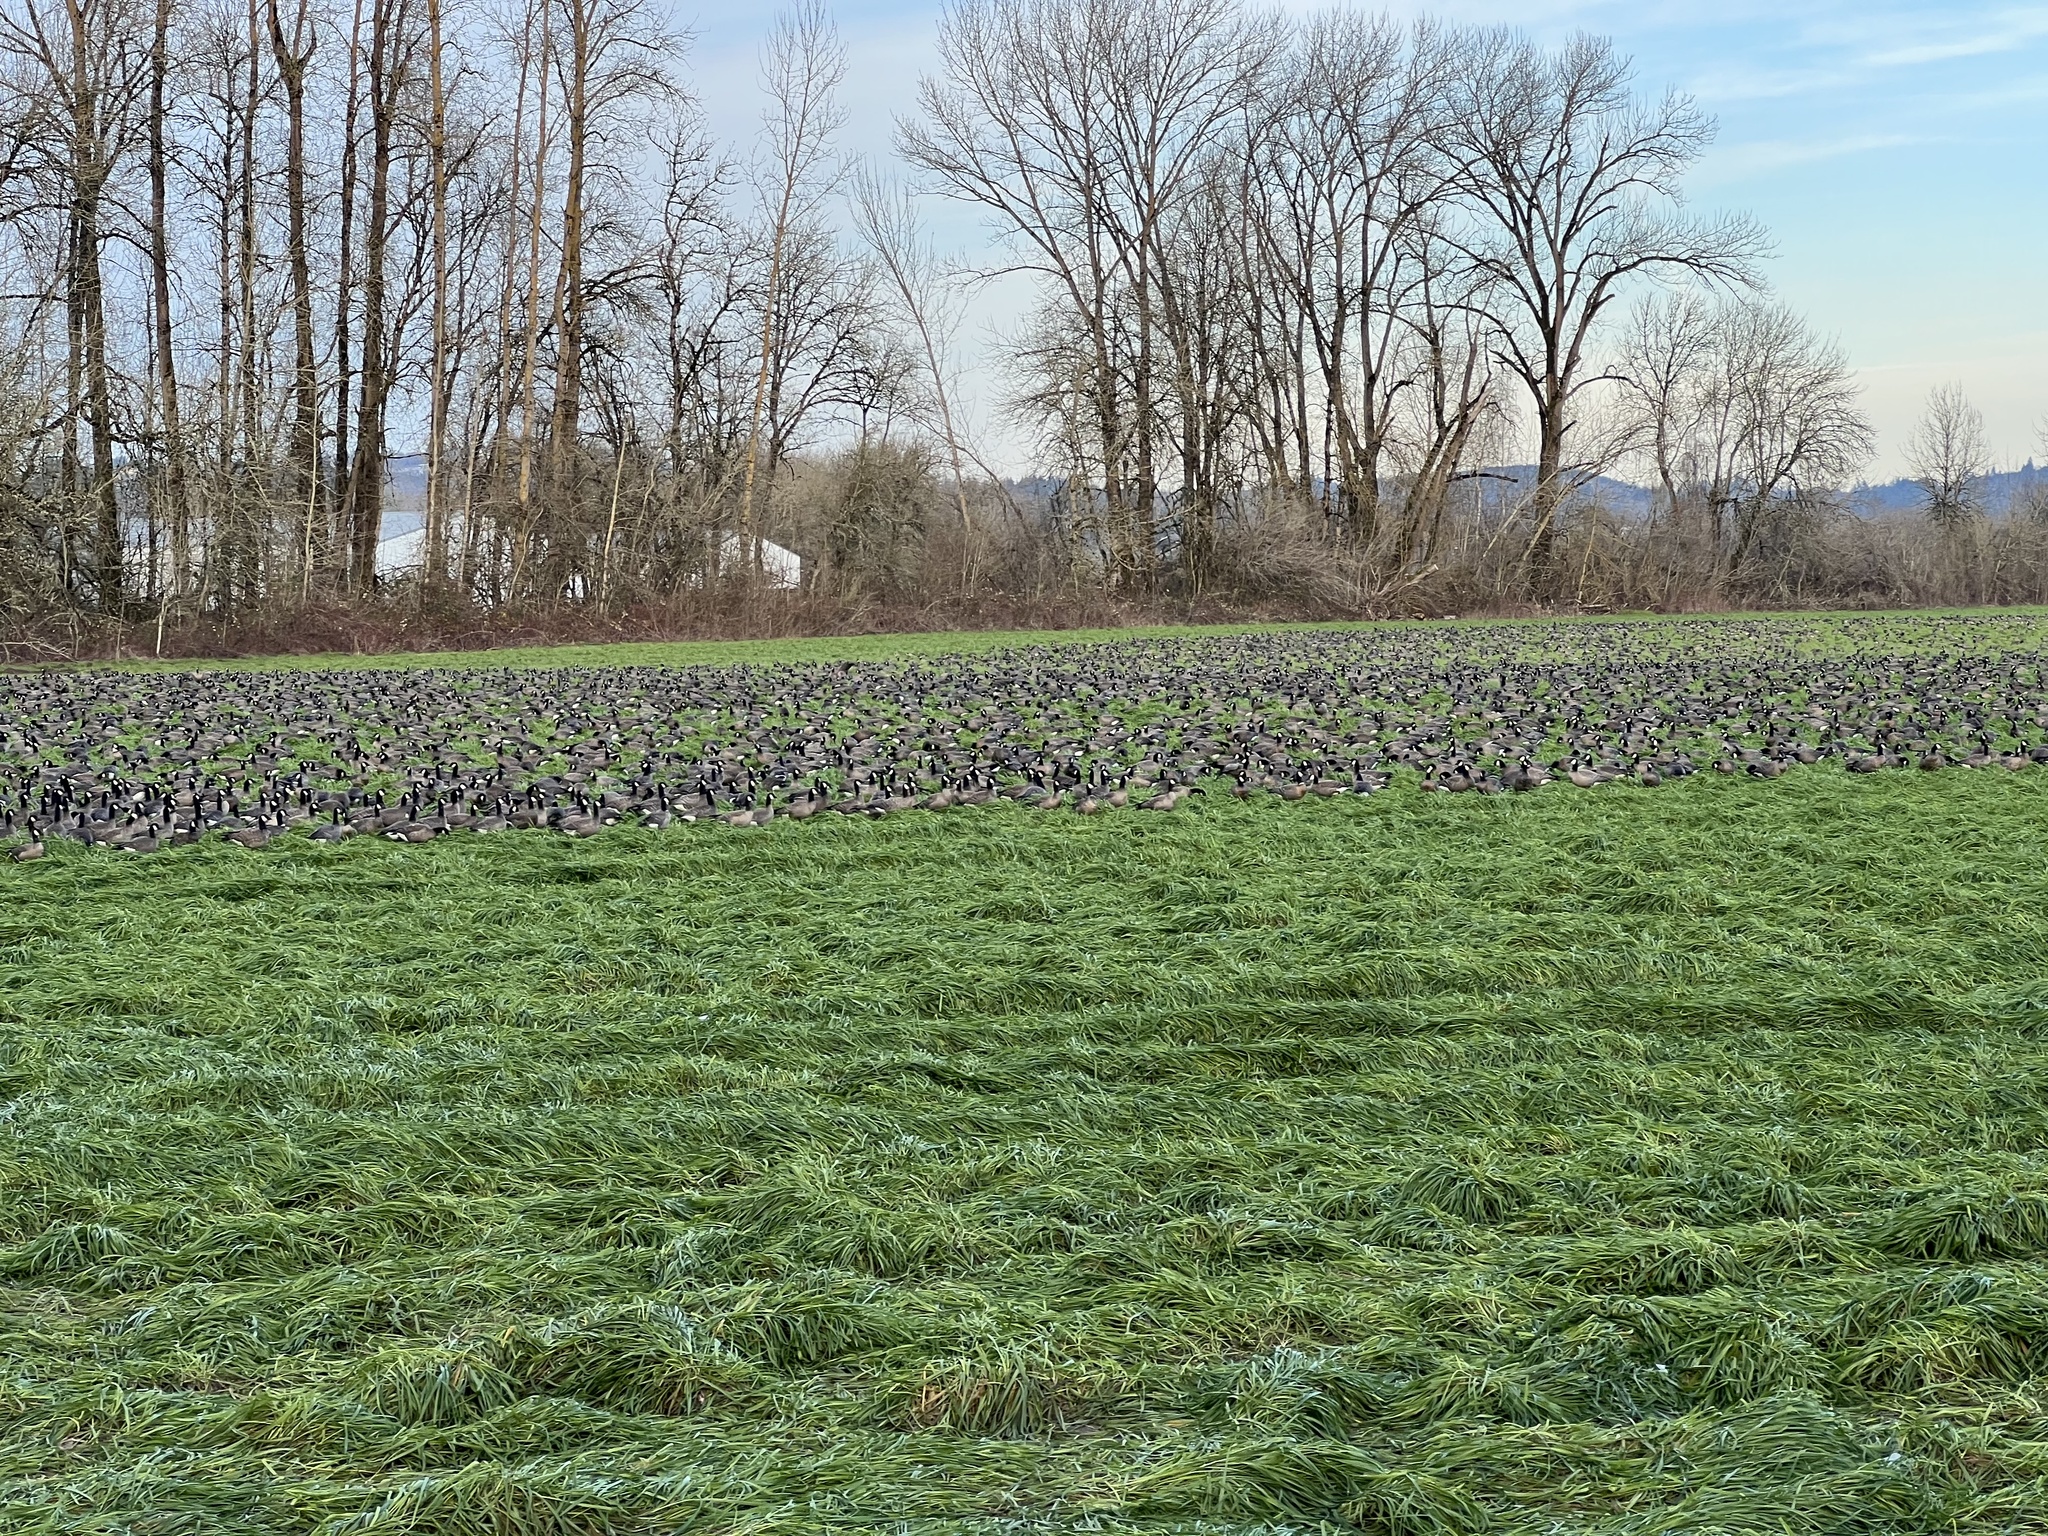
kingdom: Animalia
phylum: Chordata
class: Aves
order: Anseriformes
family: Anatidae
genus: Branta
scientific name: Branta hutchinsii
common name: Cackling goose
